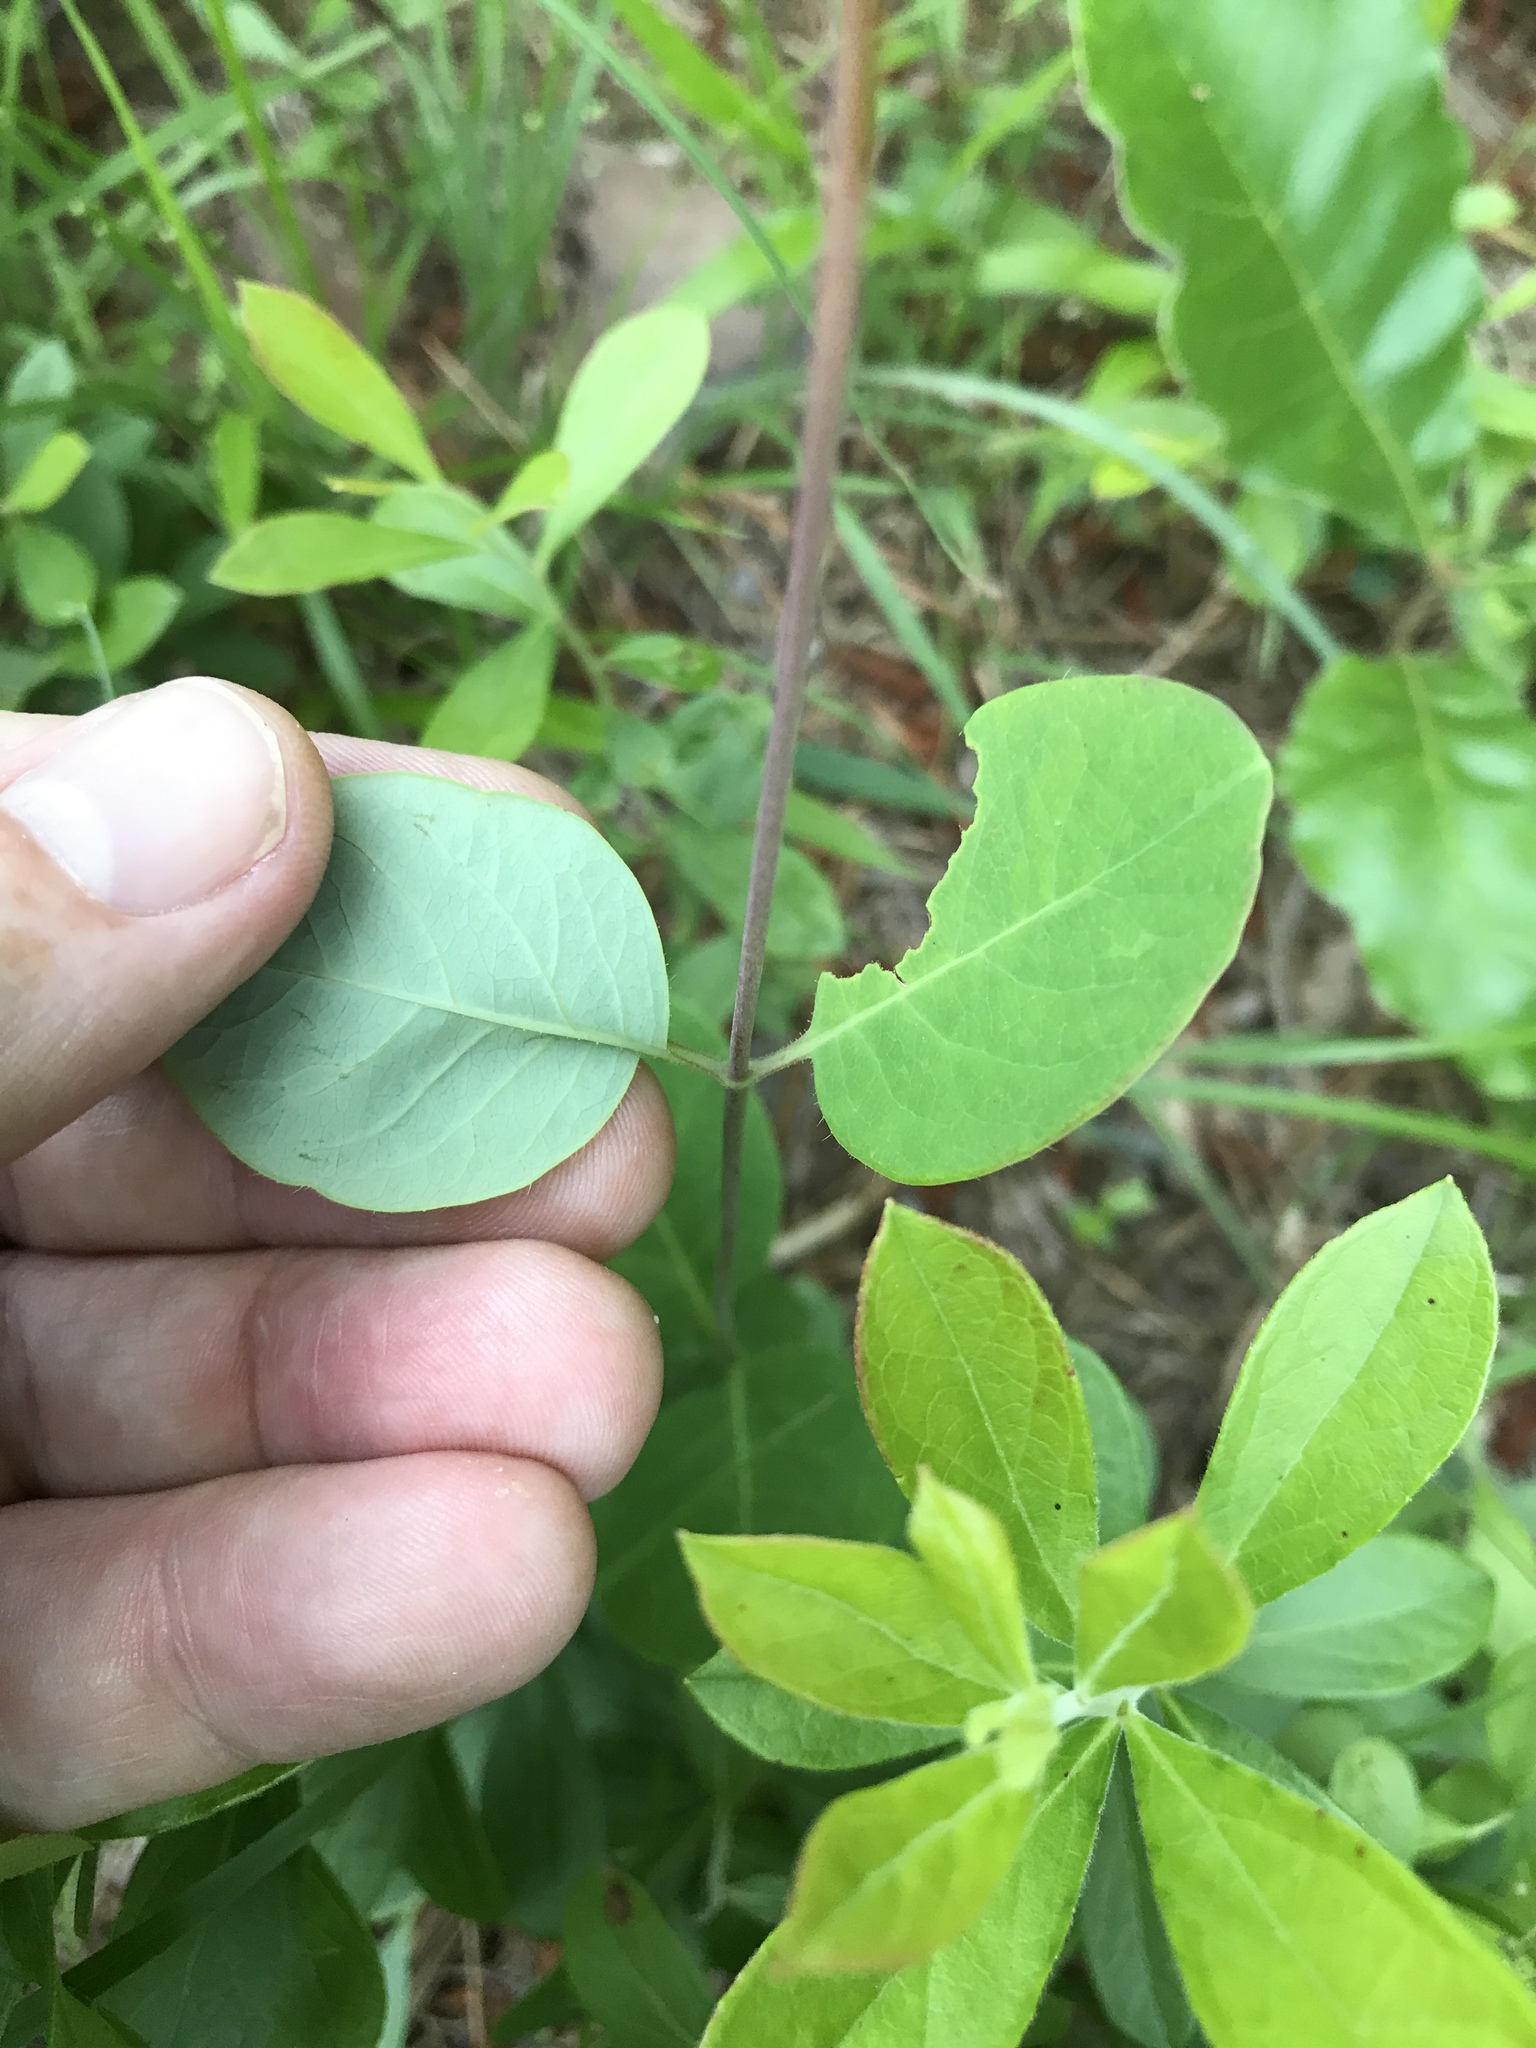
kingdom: Plantae
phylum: Tracheophyta
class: Magnoliopsida
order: Dipsacales
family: Caprifoliaceae
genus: Lonicera
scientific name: Lonicera sempervirens
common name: Coral honeysuckle
